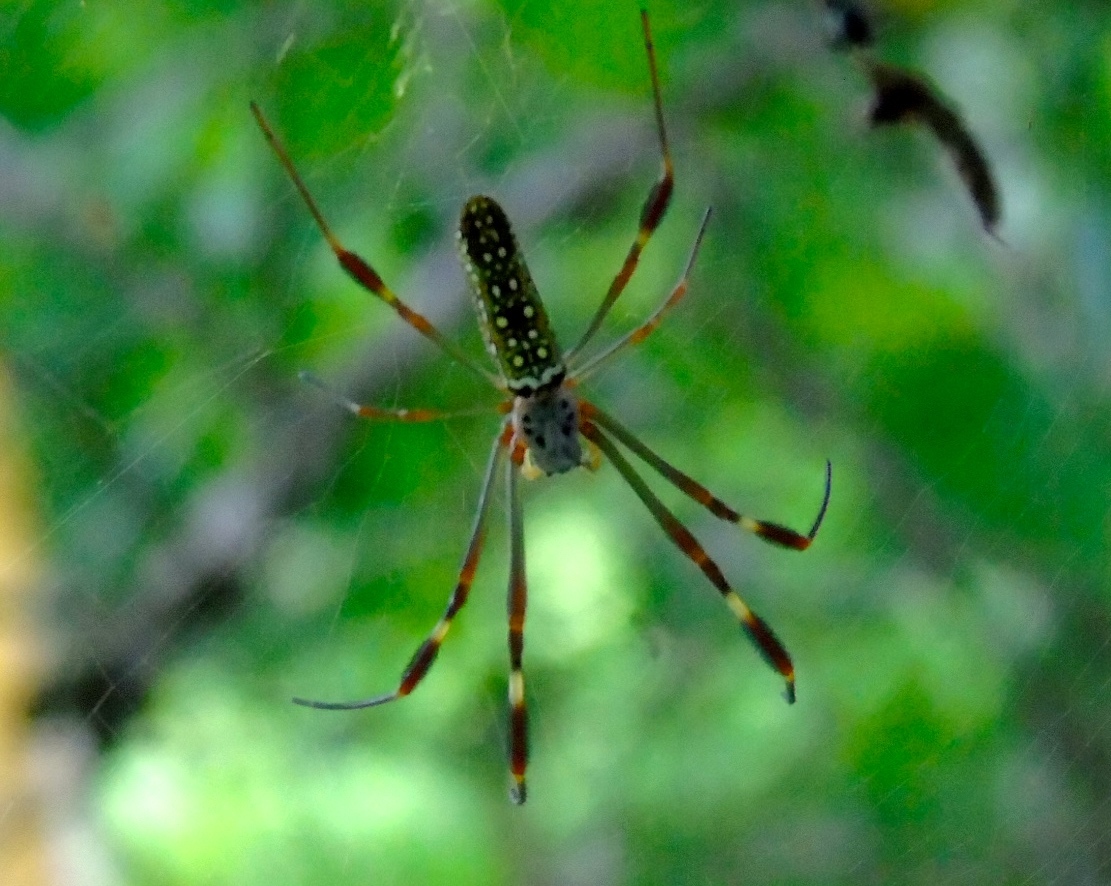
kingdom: Animalia
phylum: Arthropoda
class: Arachnida
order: Araneae
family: Araneidae
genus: Trichonephila
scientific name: Trichonephila clavipes
